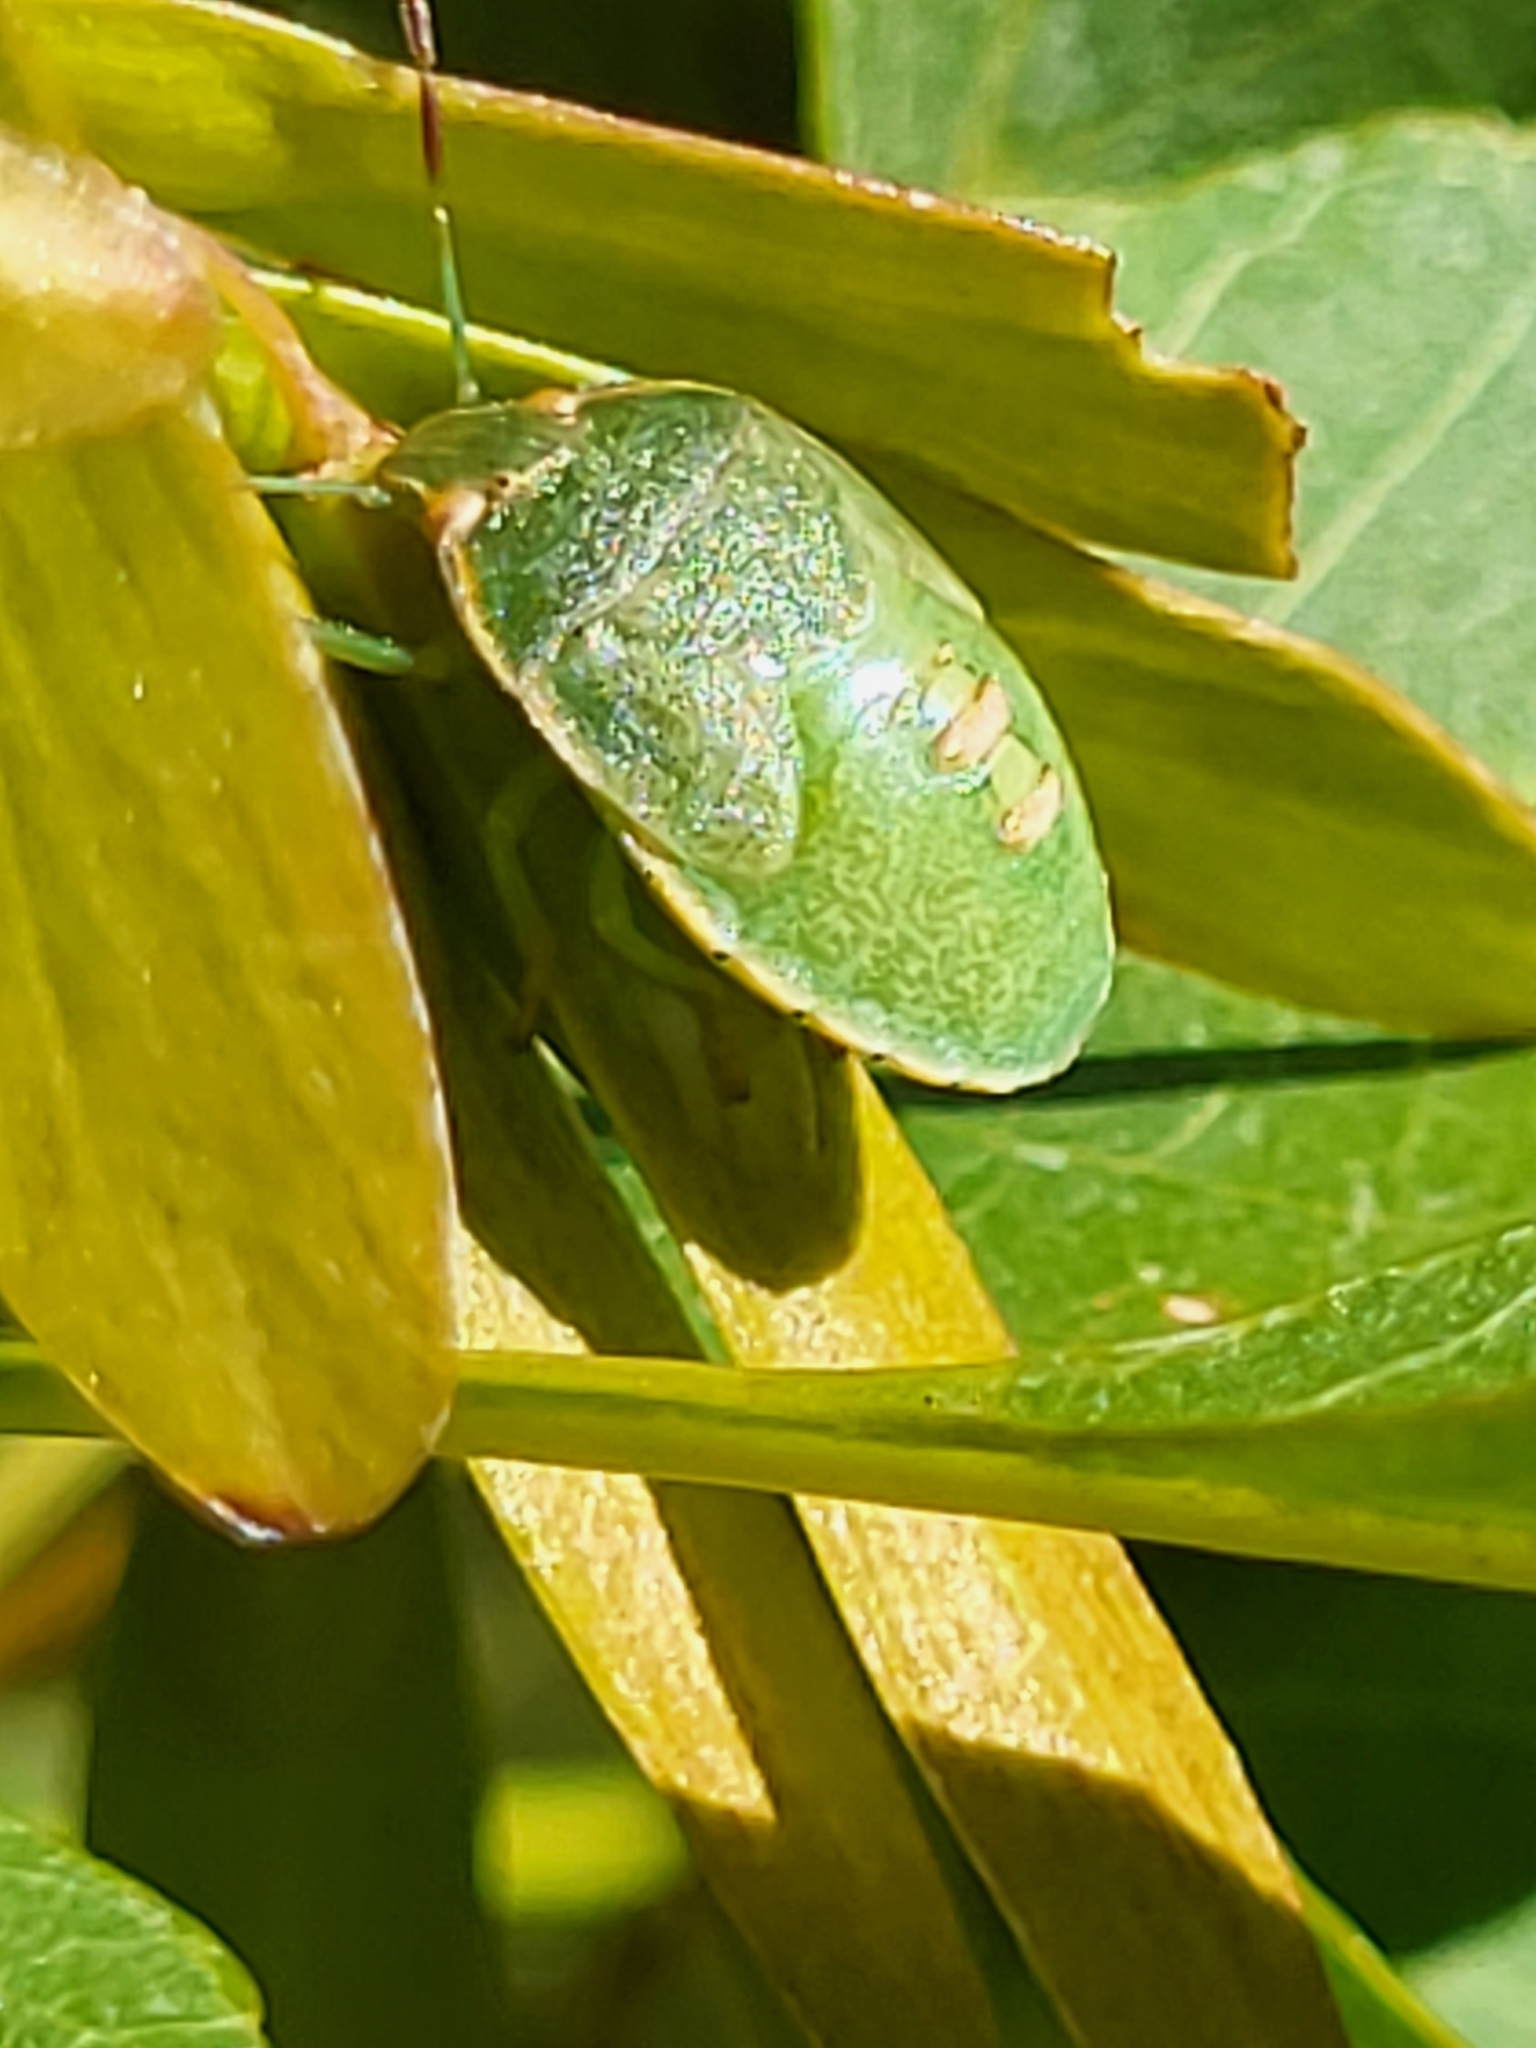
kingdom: Animalia
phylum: Arthropoda
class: Insecta
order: Hemiptera
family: Pentatomidae
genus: Acrosternum
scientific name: Acrosternum heegeri
